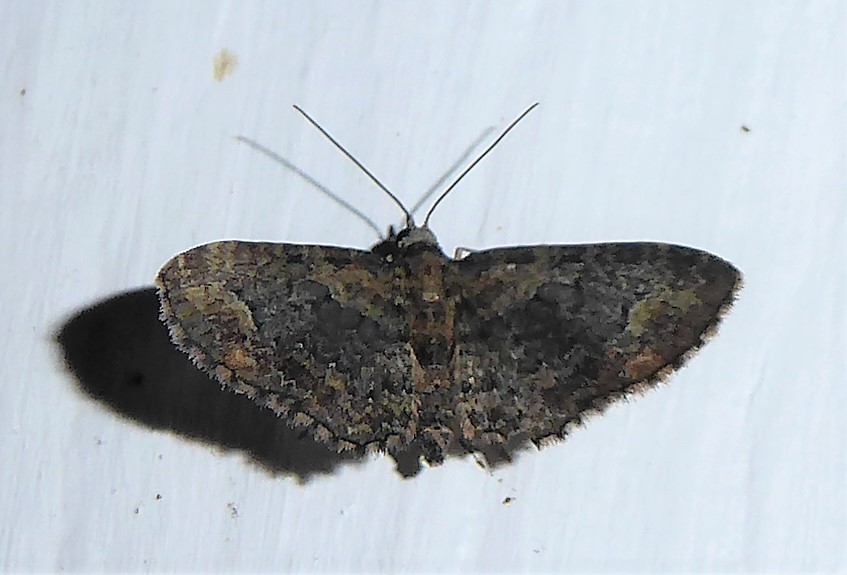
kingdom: Animalia
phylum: Arthropoda
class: Insecta
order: Lepidoptera
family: Geometridae
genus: Pasiphilodes
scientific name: Pasiphilodes testulata
